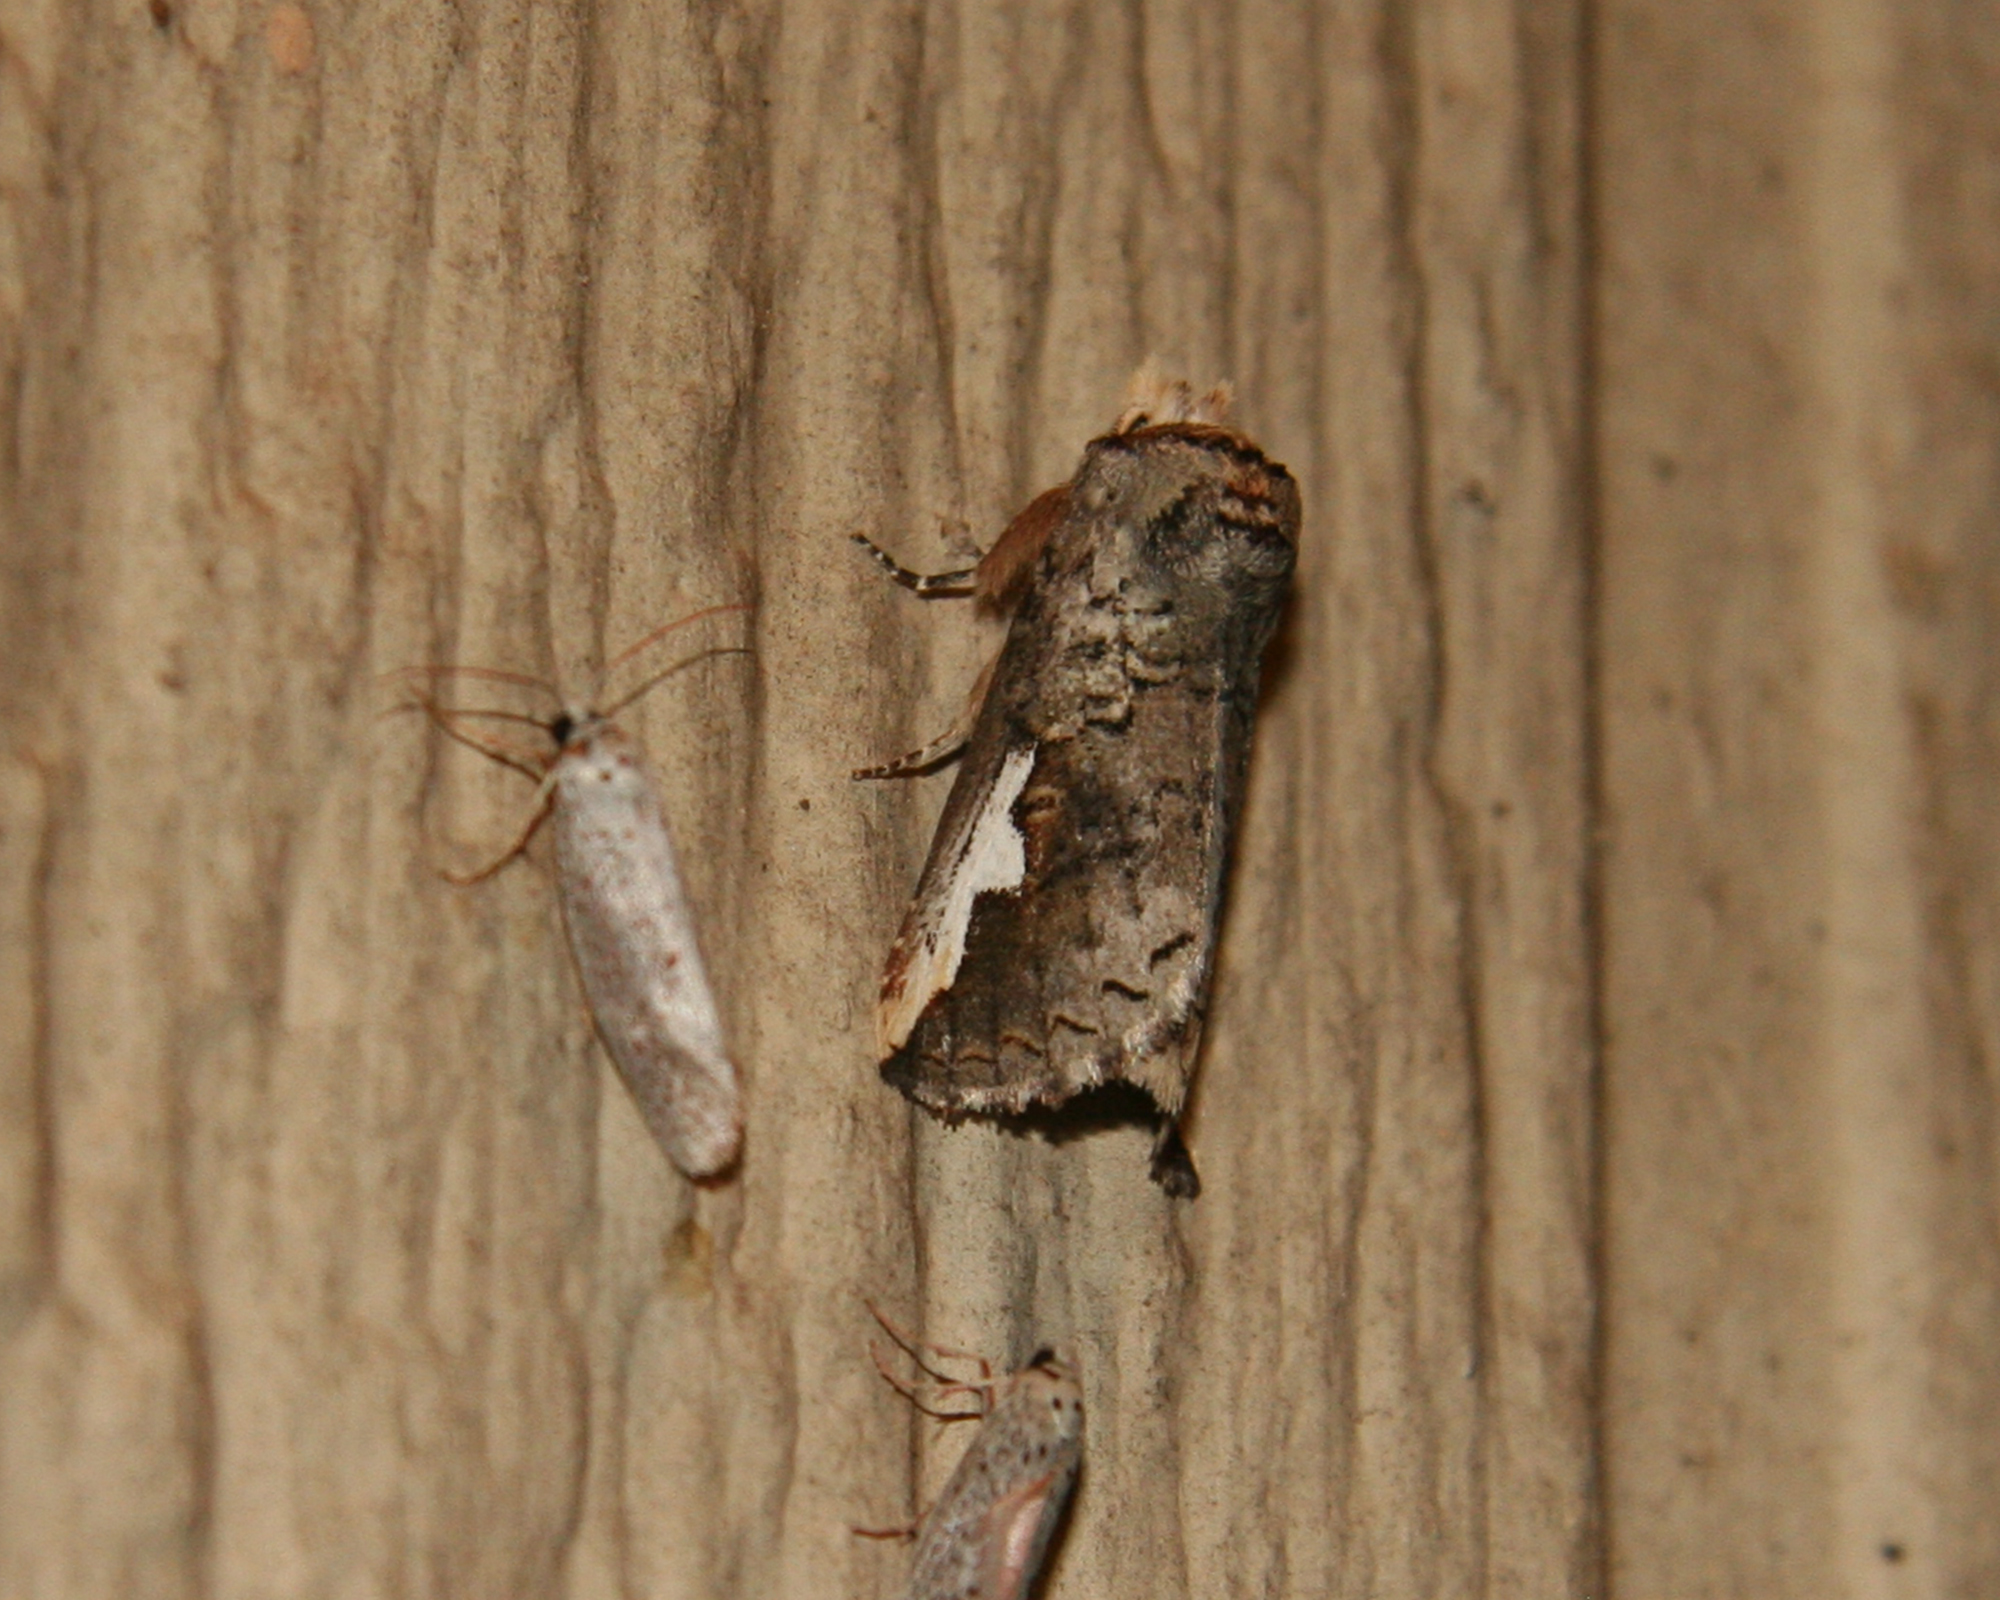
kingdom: Animalia
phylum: Arthropoda
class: Insecta
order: Lepidoptera
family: Notodontidae
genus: Symmerista
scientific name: Symmerista albifrons
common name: White-headed prominent
